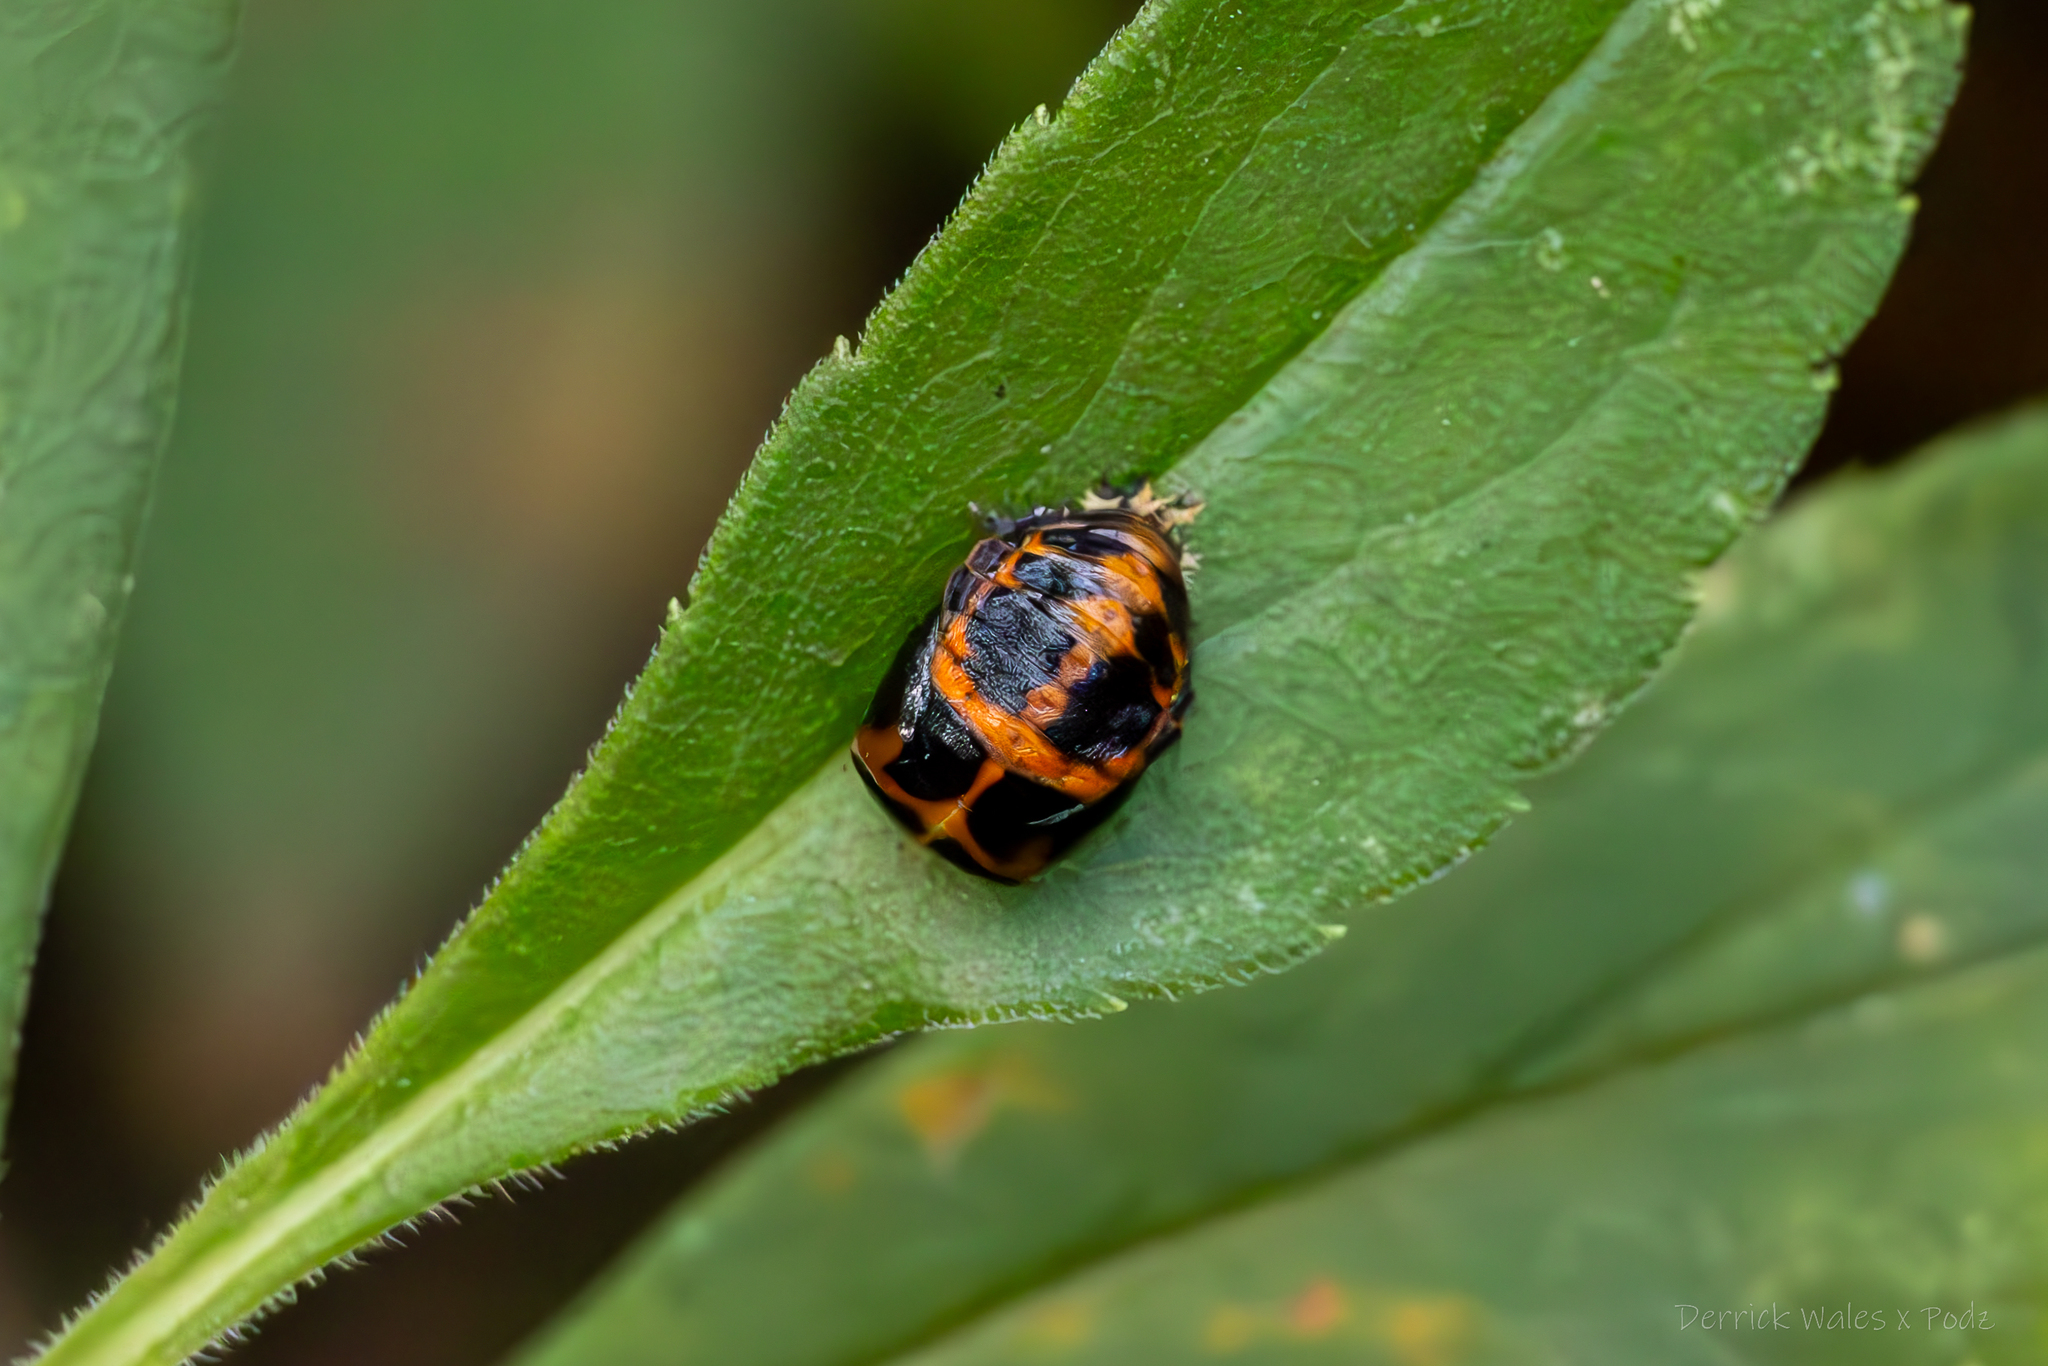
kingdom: Animalia
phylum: Arthropoda
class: Insecta
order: Coleoptera
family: Coccinellidae
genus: Harmonia
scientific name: Harmonia axyridis
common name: Harlequin ladybird
